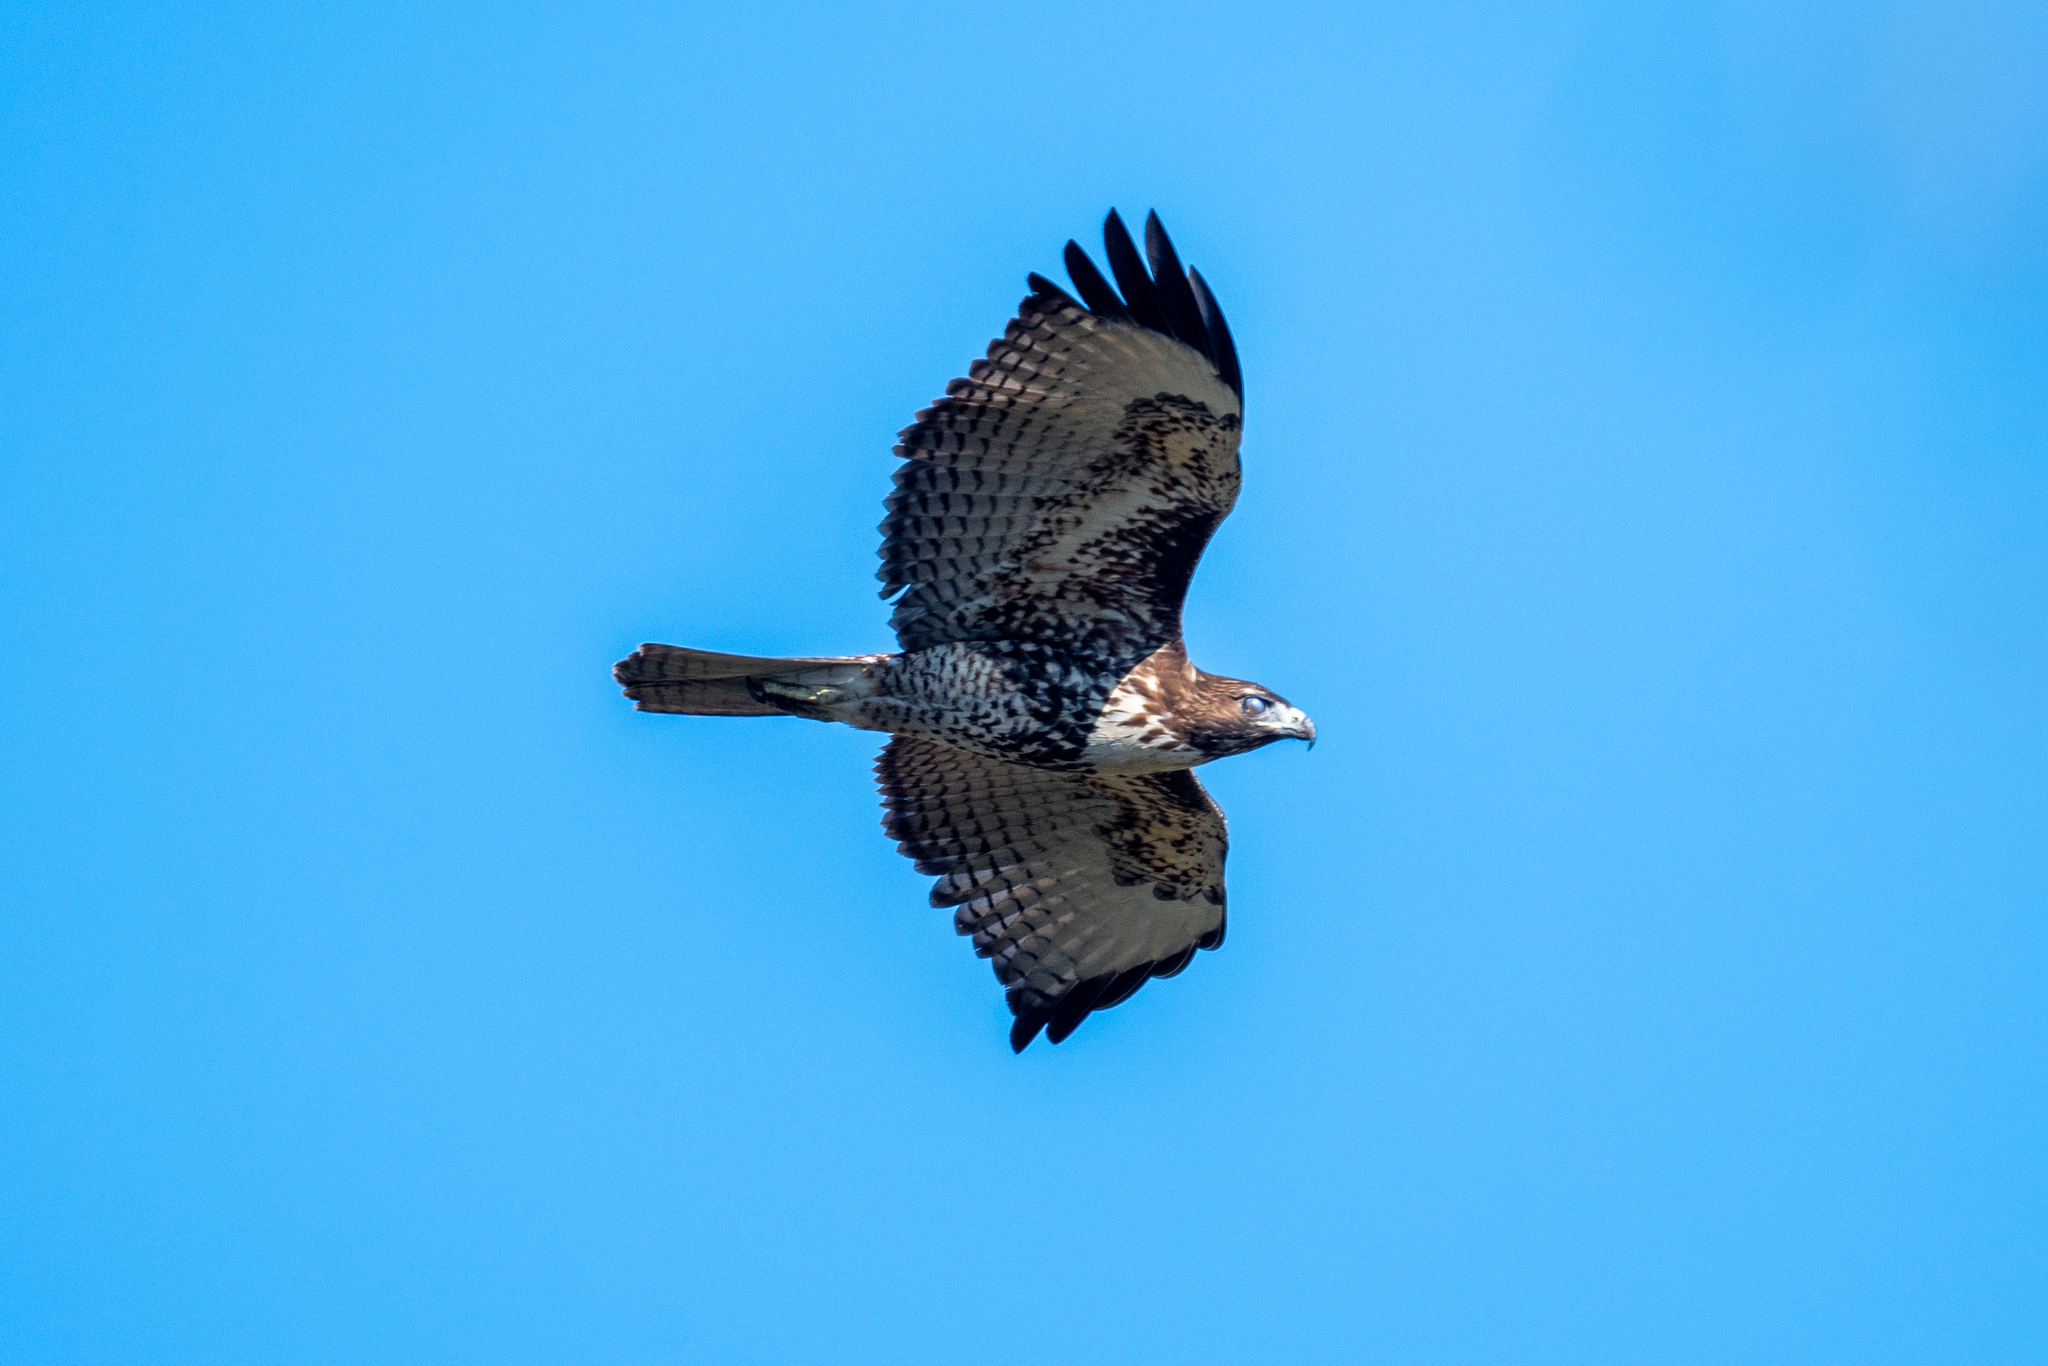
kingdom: Animalia
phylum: Chordata
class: Aves
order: Accipitriformes
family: Accipitridae
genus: Buteo
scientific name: Buteo jamaicensis
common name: Red-tailed hawk
